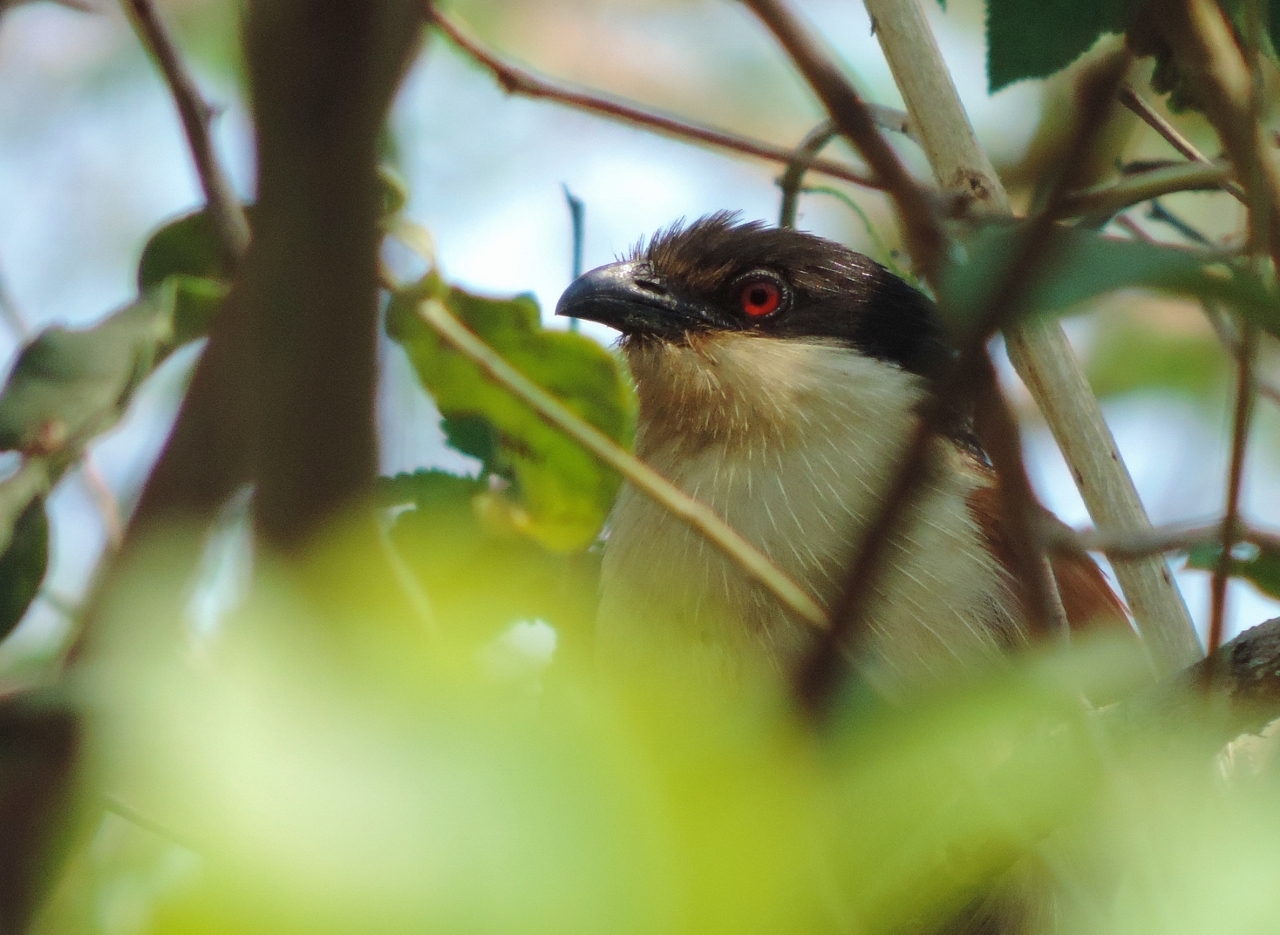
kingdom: Animalia
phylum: Chordata
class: Aves
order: Cuculiformes
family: Cuculidae
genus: Centropus
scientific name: Centropus senegalensis
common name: Senegal coucal
